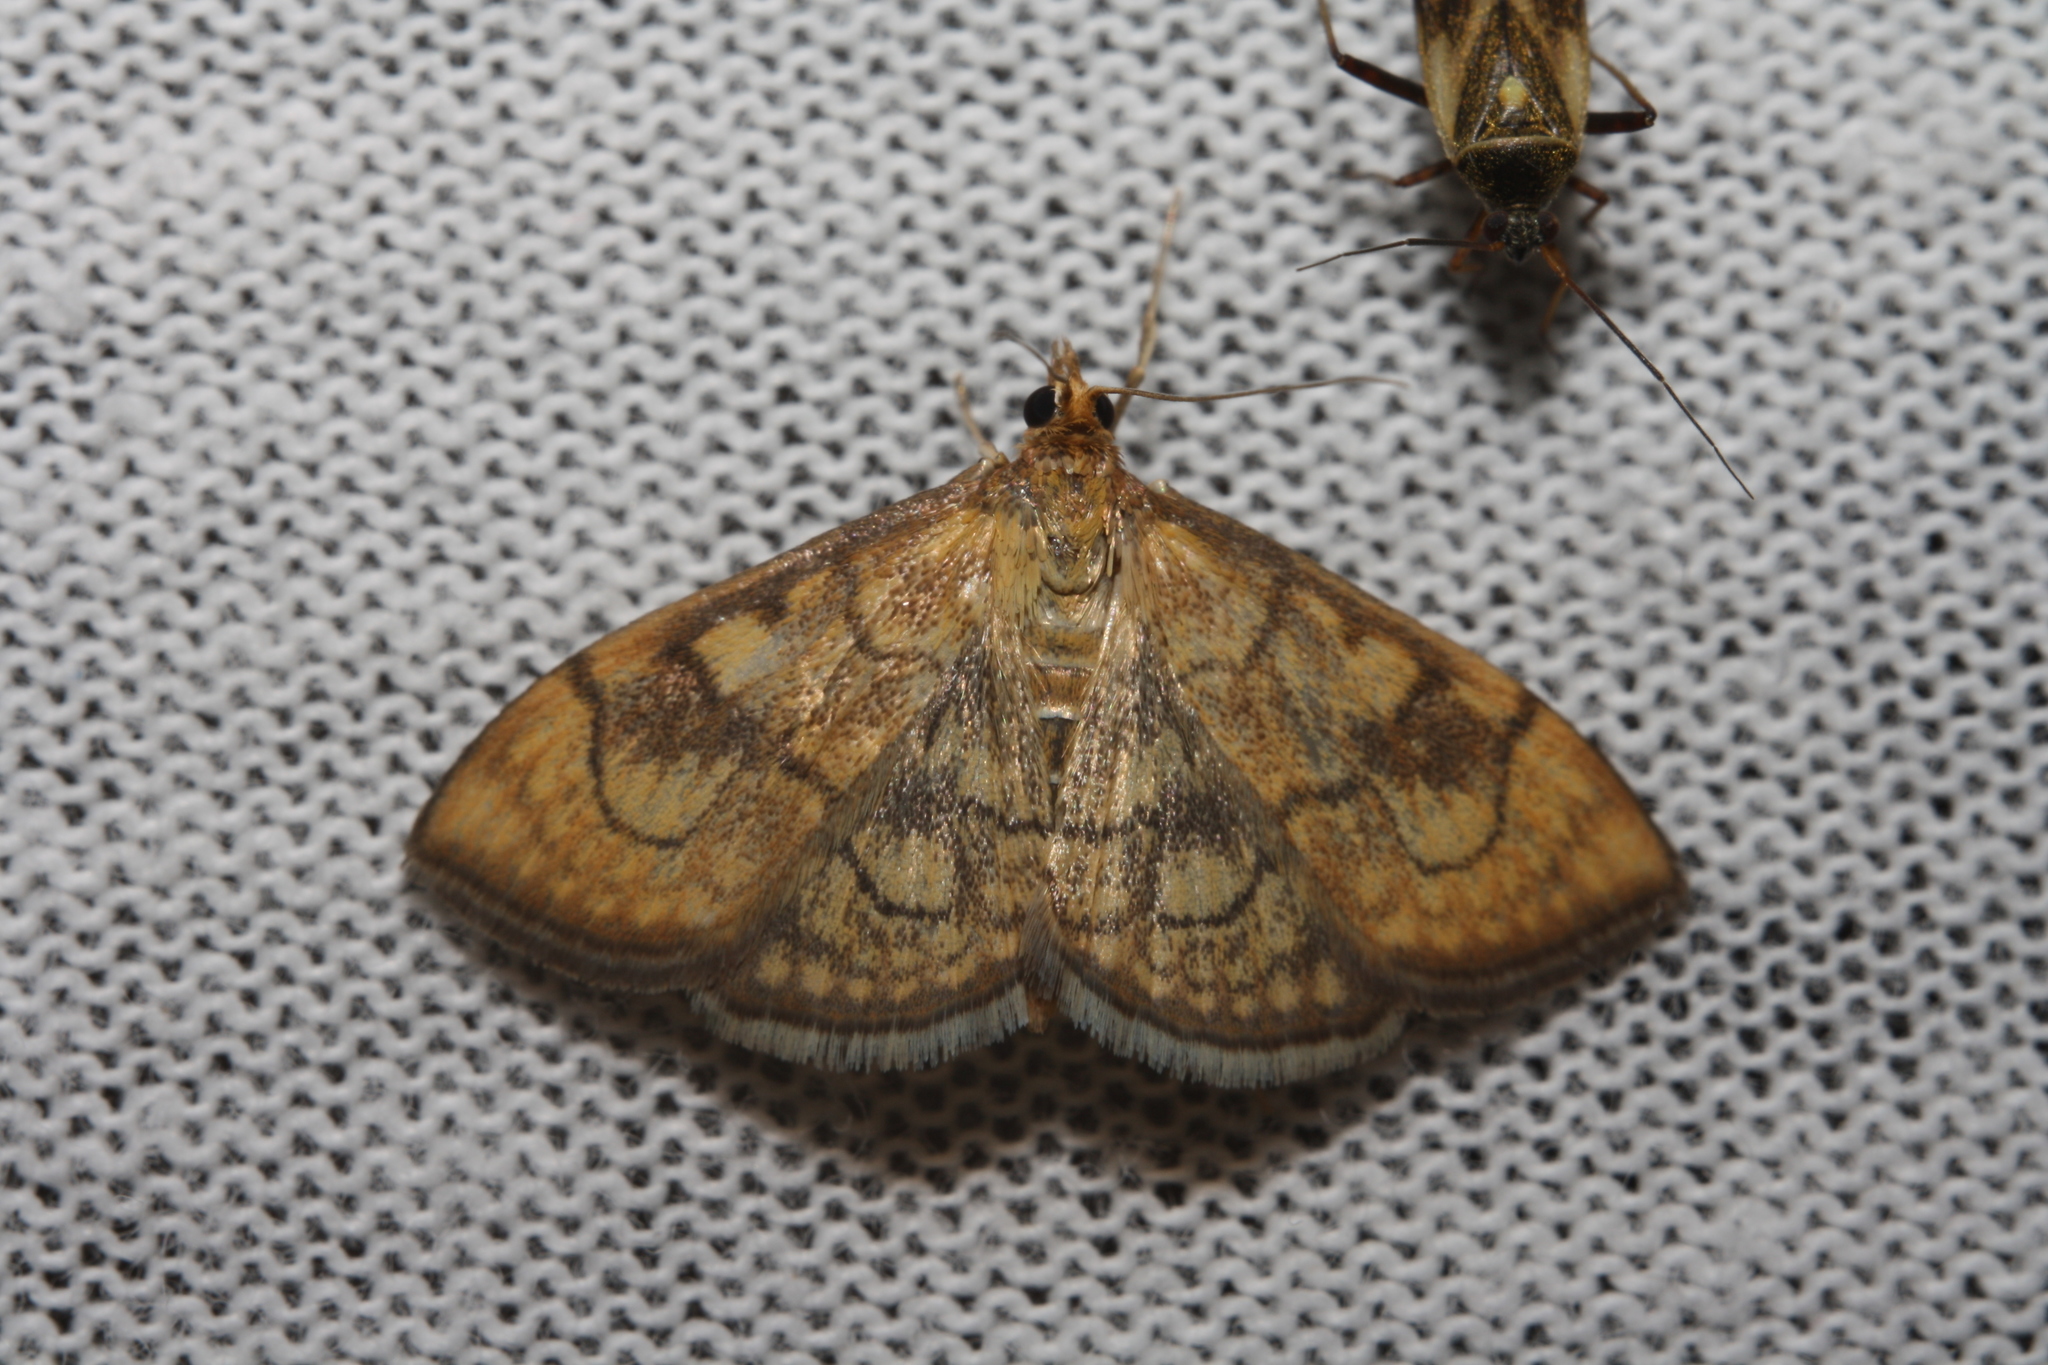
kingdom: Animalia
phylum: Arthropoda
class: Insecta
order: Lepidoptera
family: Crambidae
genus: Anania
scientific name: Anania verbascalis
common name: Golden pearl
